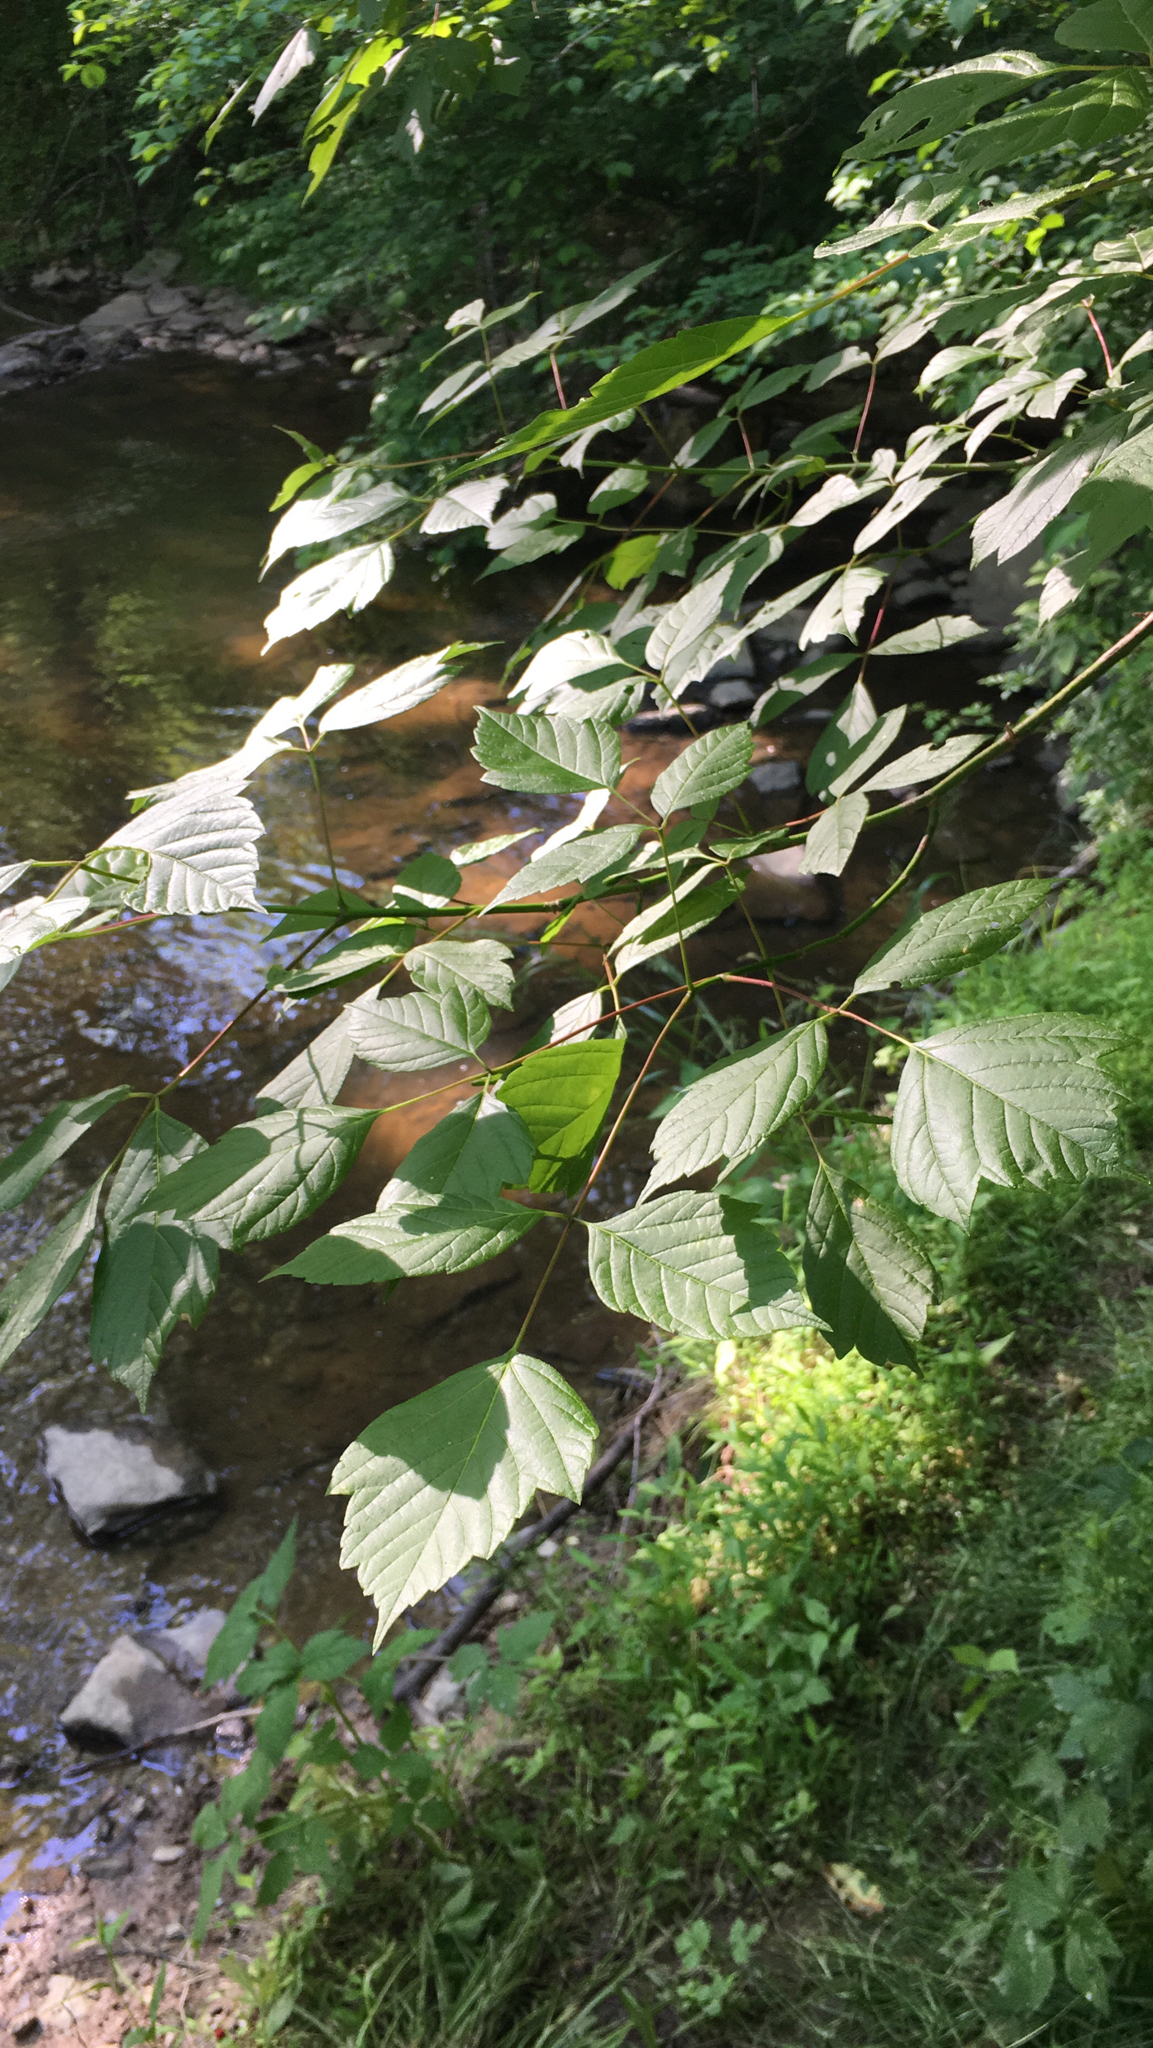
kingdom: Plantae
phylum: Tracheophyta
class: Magnoliopsida
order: Sapindales
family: Sapindaceae
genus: Acer
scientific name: Acer negundo
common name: Ashleaf maple
